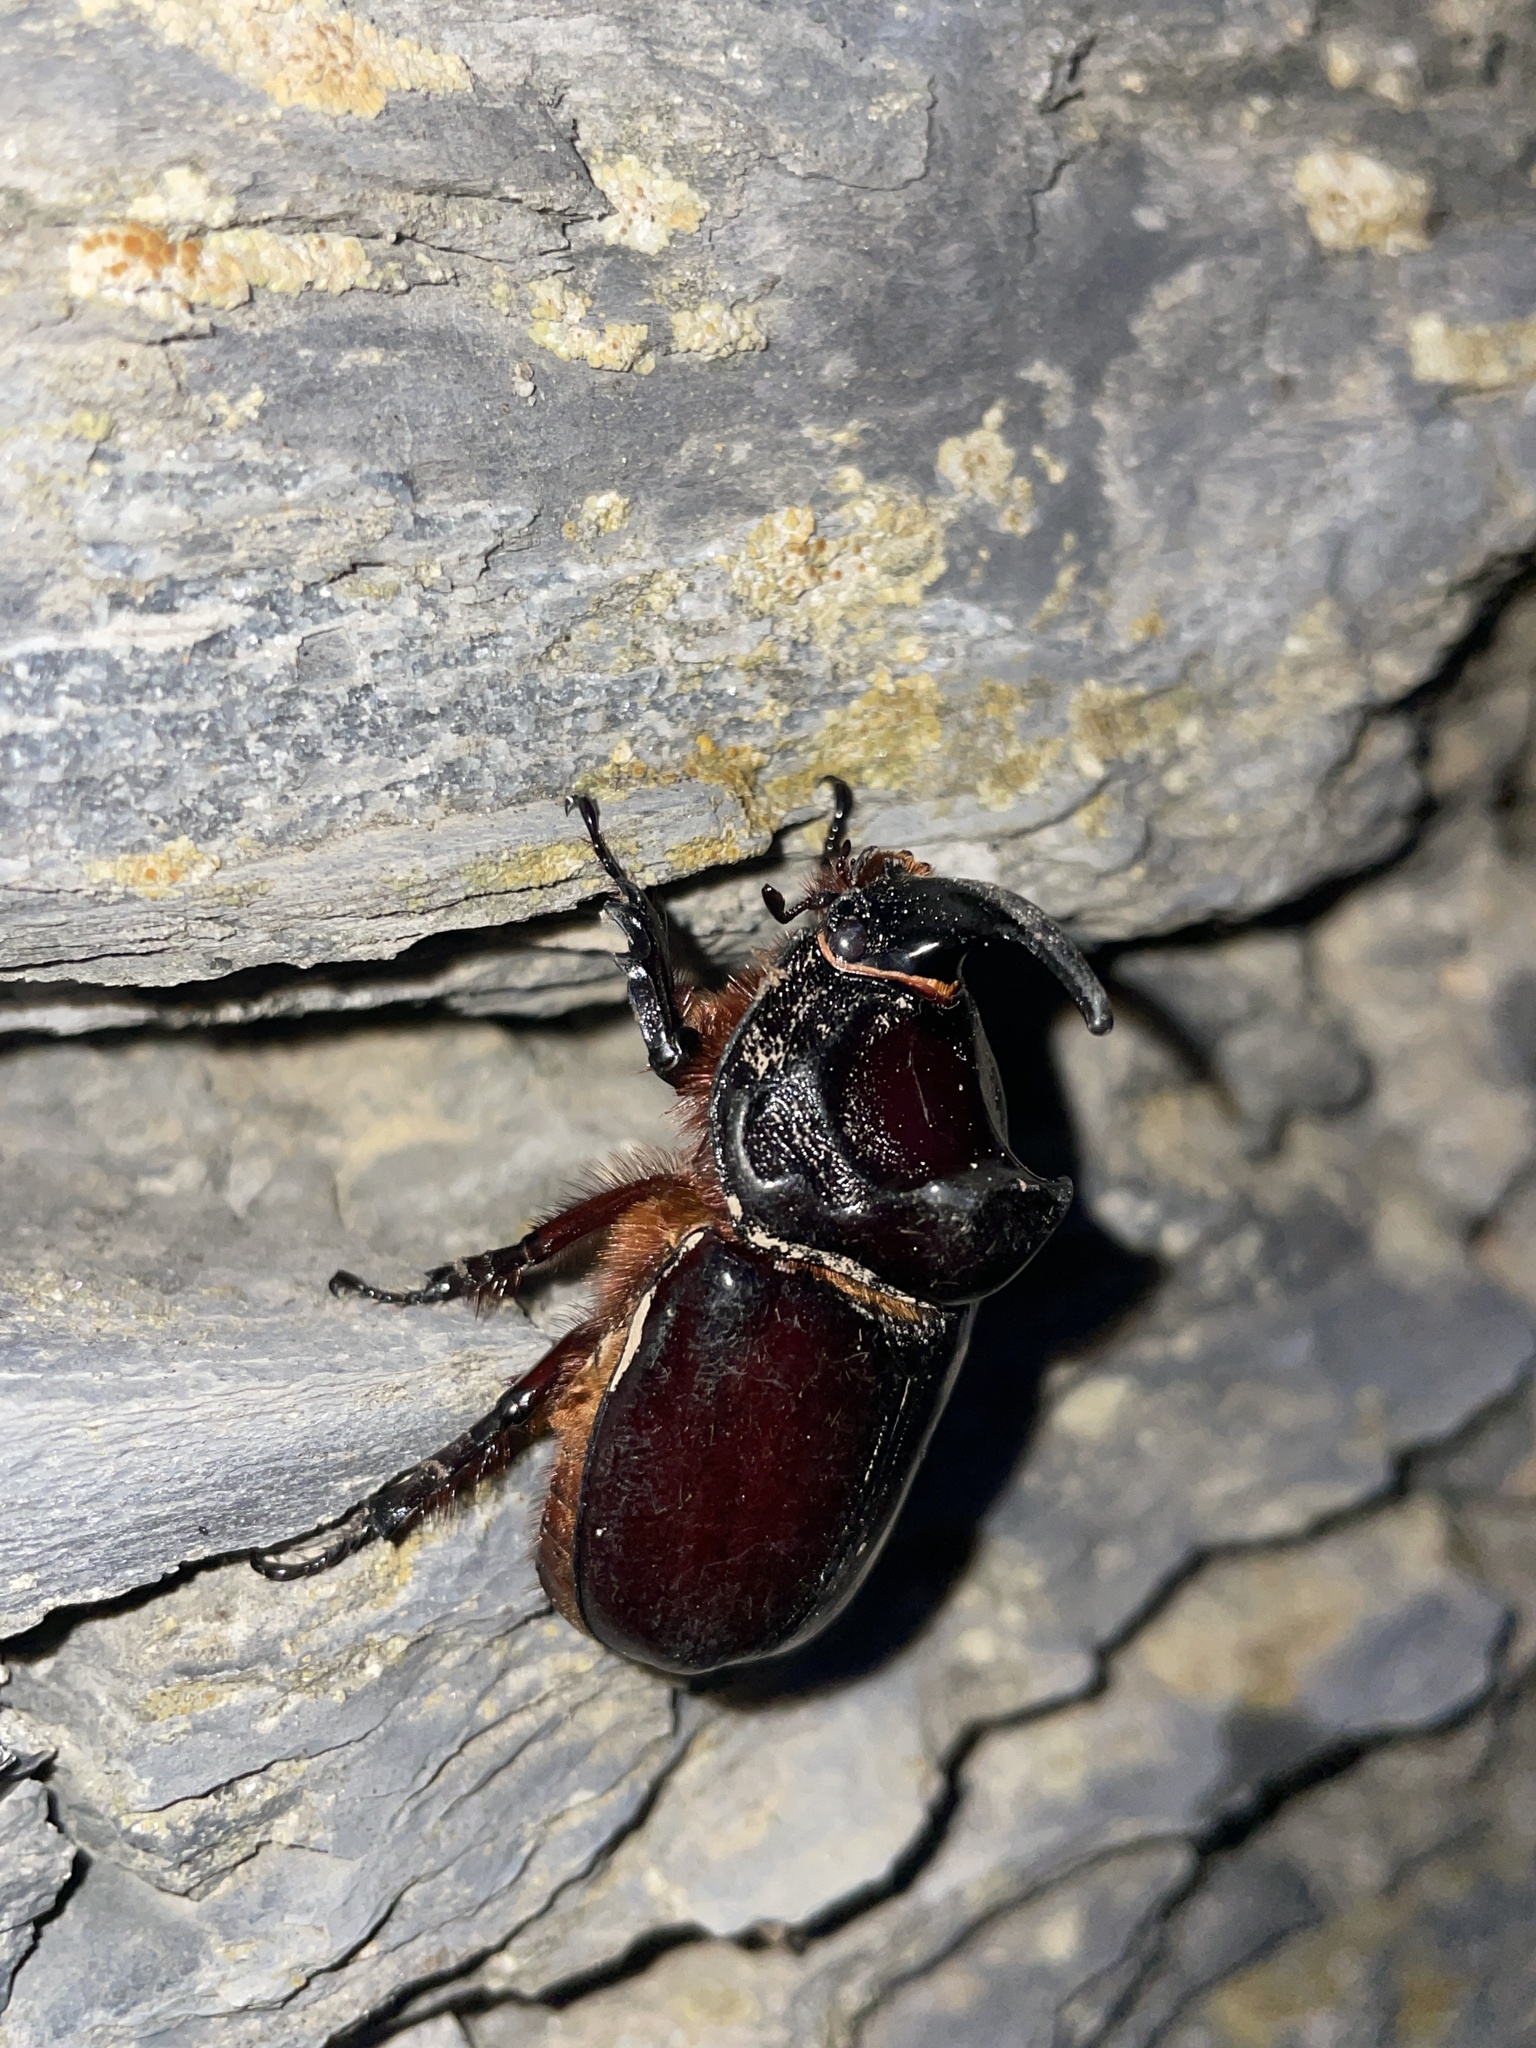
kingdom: Animalia
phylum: Arthropoda
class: Insecta
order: Coleoptera
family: Scarabaeidae
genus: Oryctes
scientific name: Oryctes nasicornis
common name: European rhinoceros beetle
